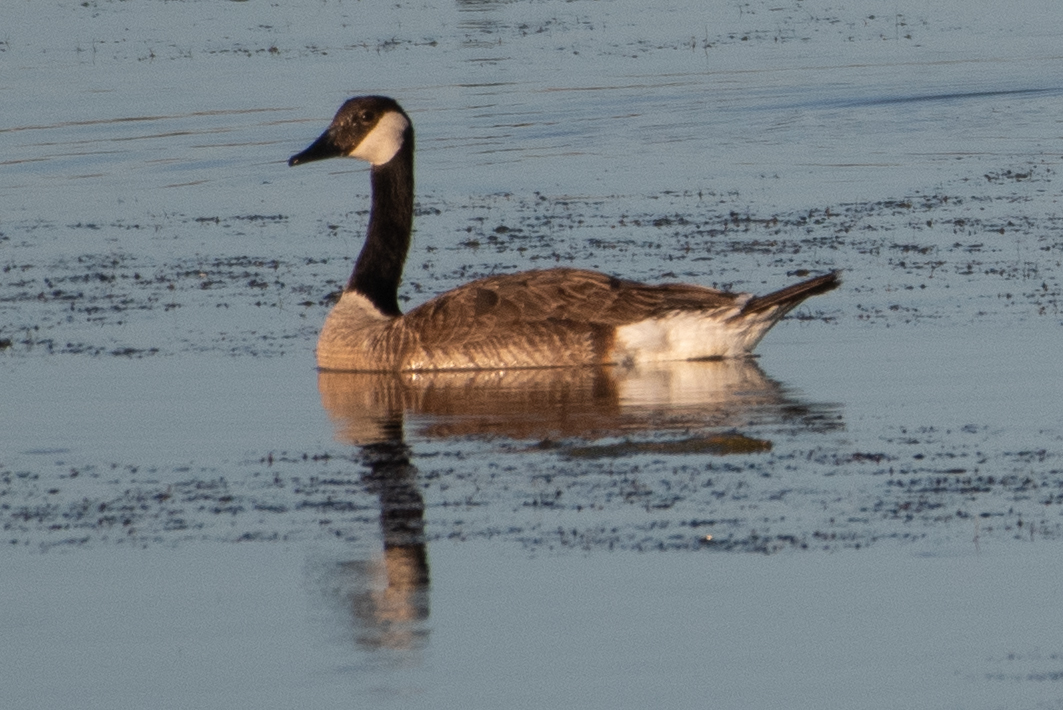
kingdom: Animalia
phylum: Chordata
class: Aves
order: Anseriformes
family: Anatidae
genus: Branta
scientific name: Branta canadensis
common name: Canada goose
